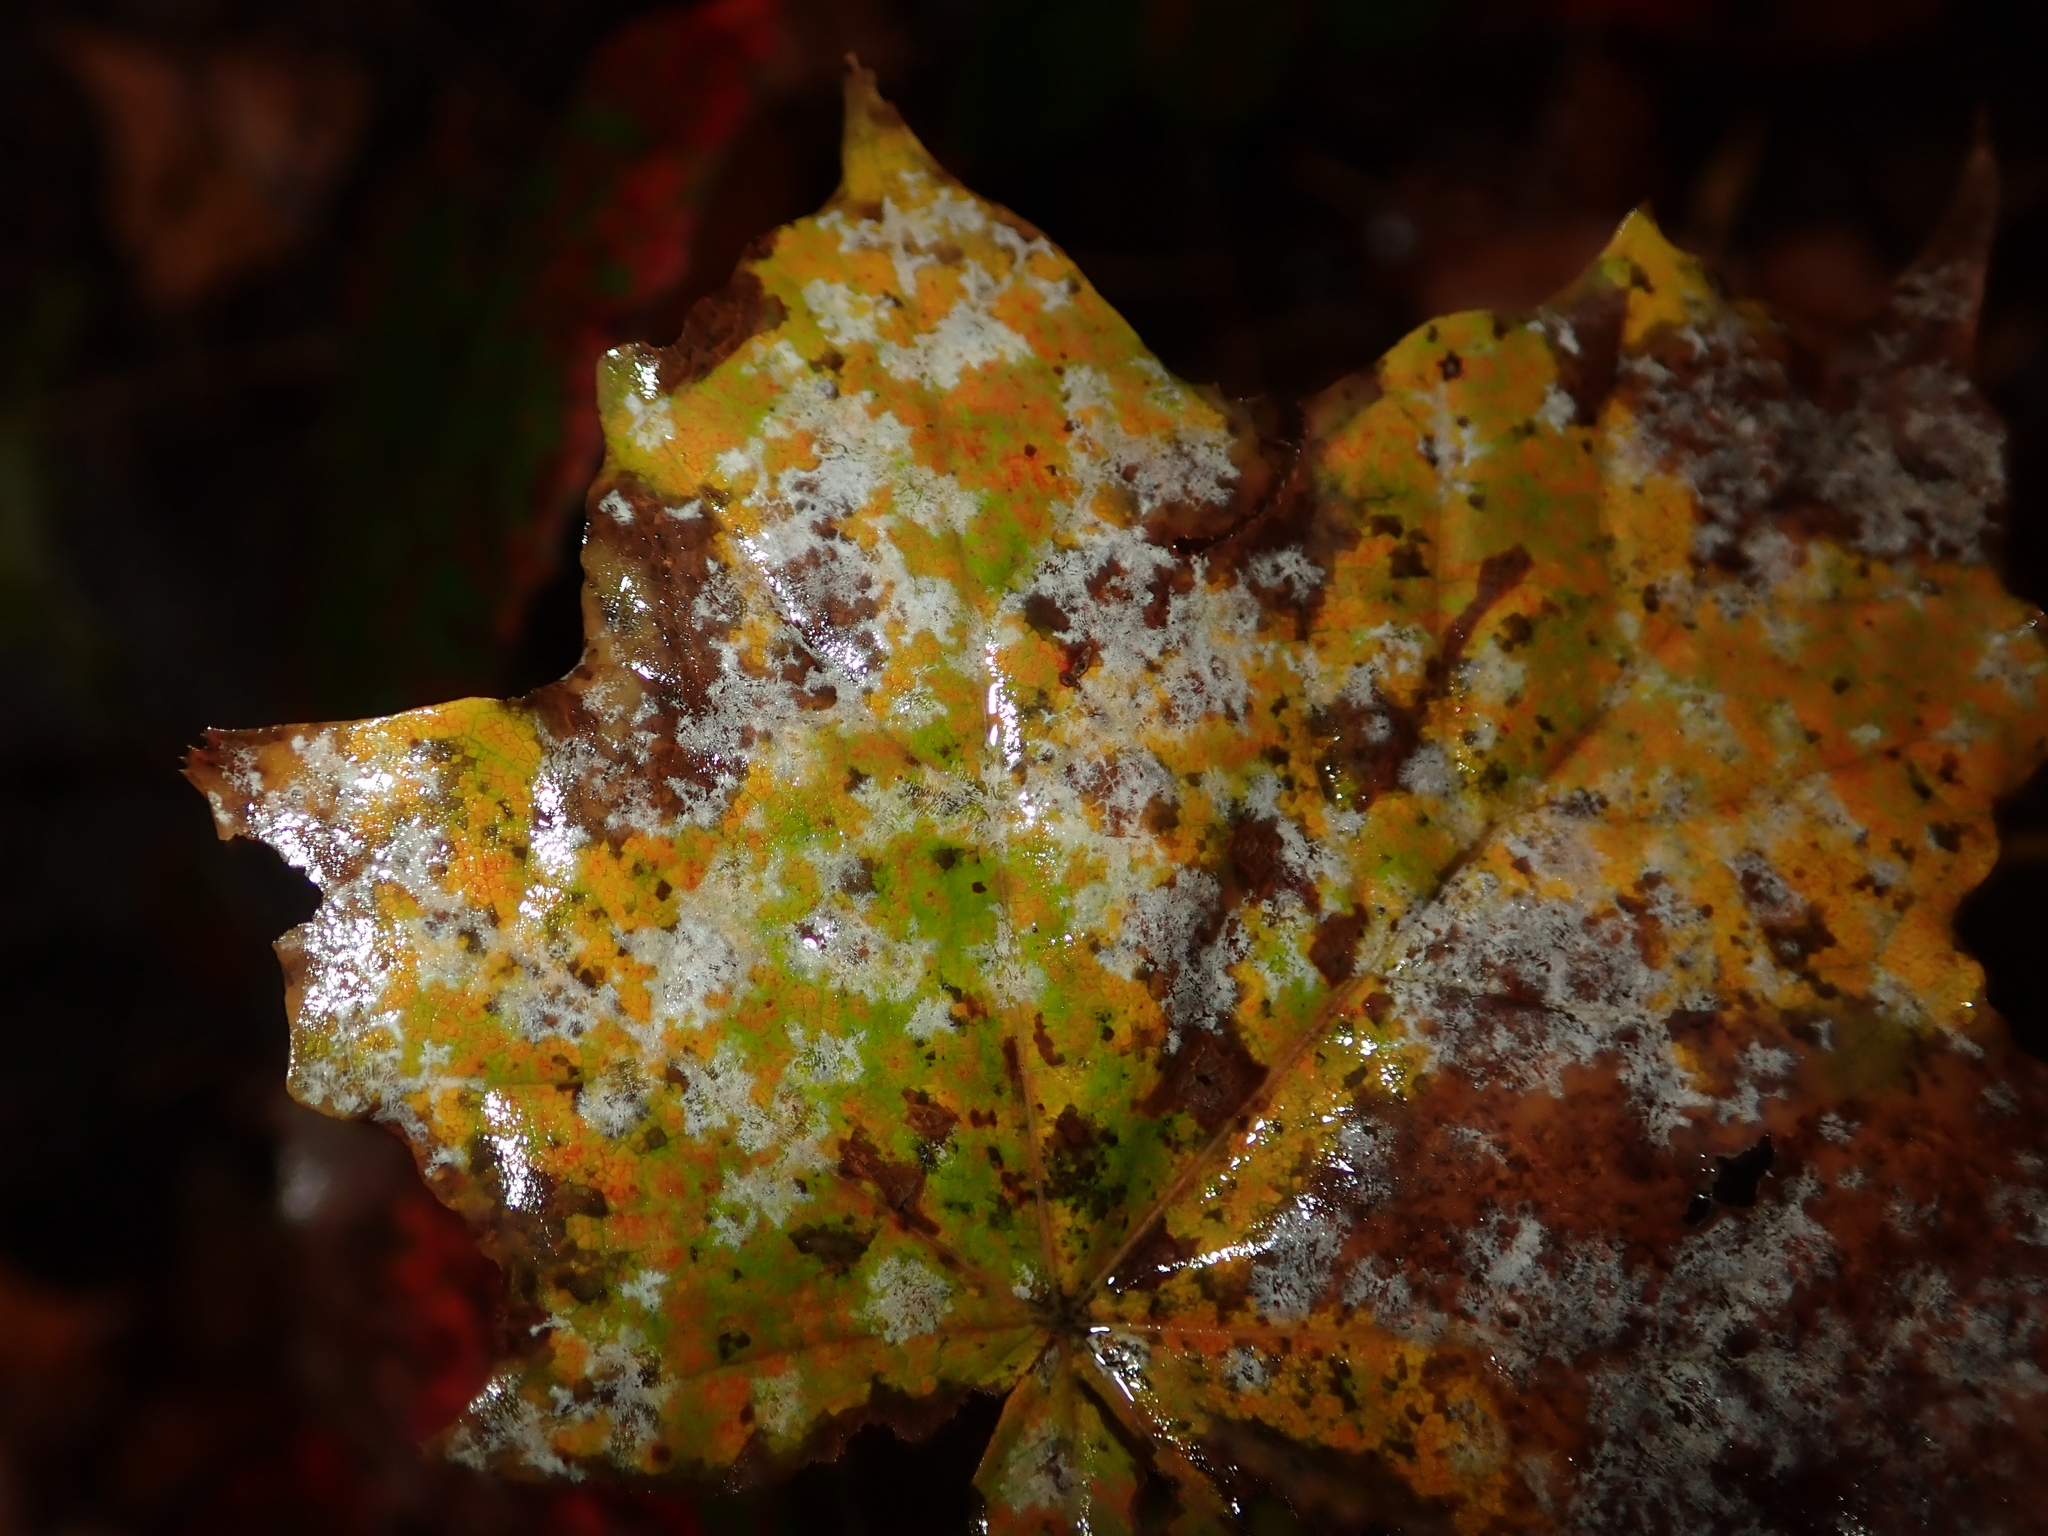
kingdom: Fungi
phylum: Ascomycota
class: Leotiomycetes
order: Helotiales
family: Erysiphaceae
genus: Sawadaea
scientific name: Sawadaea tulasnei
